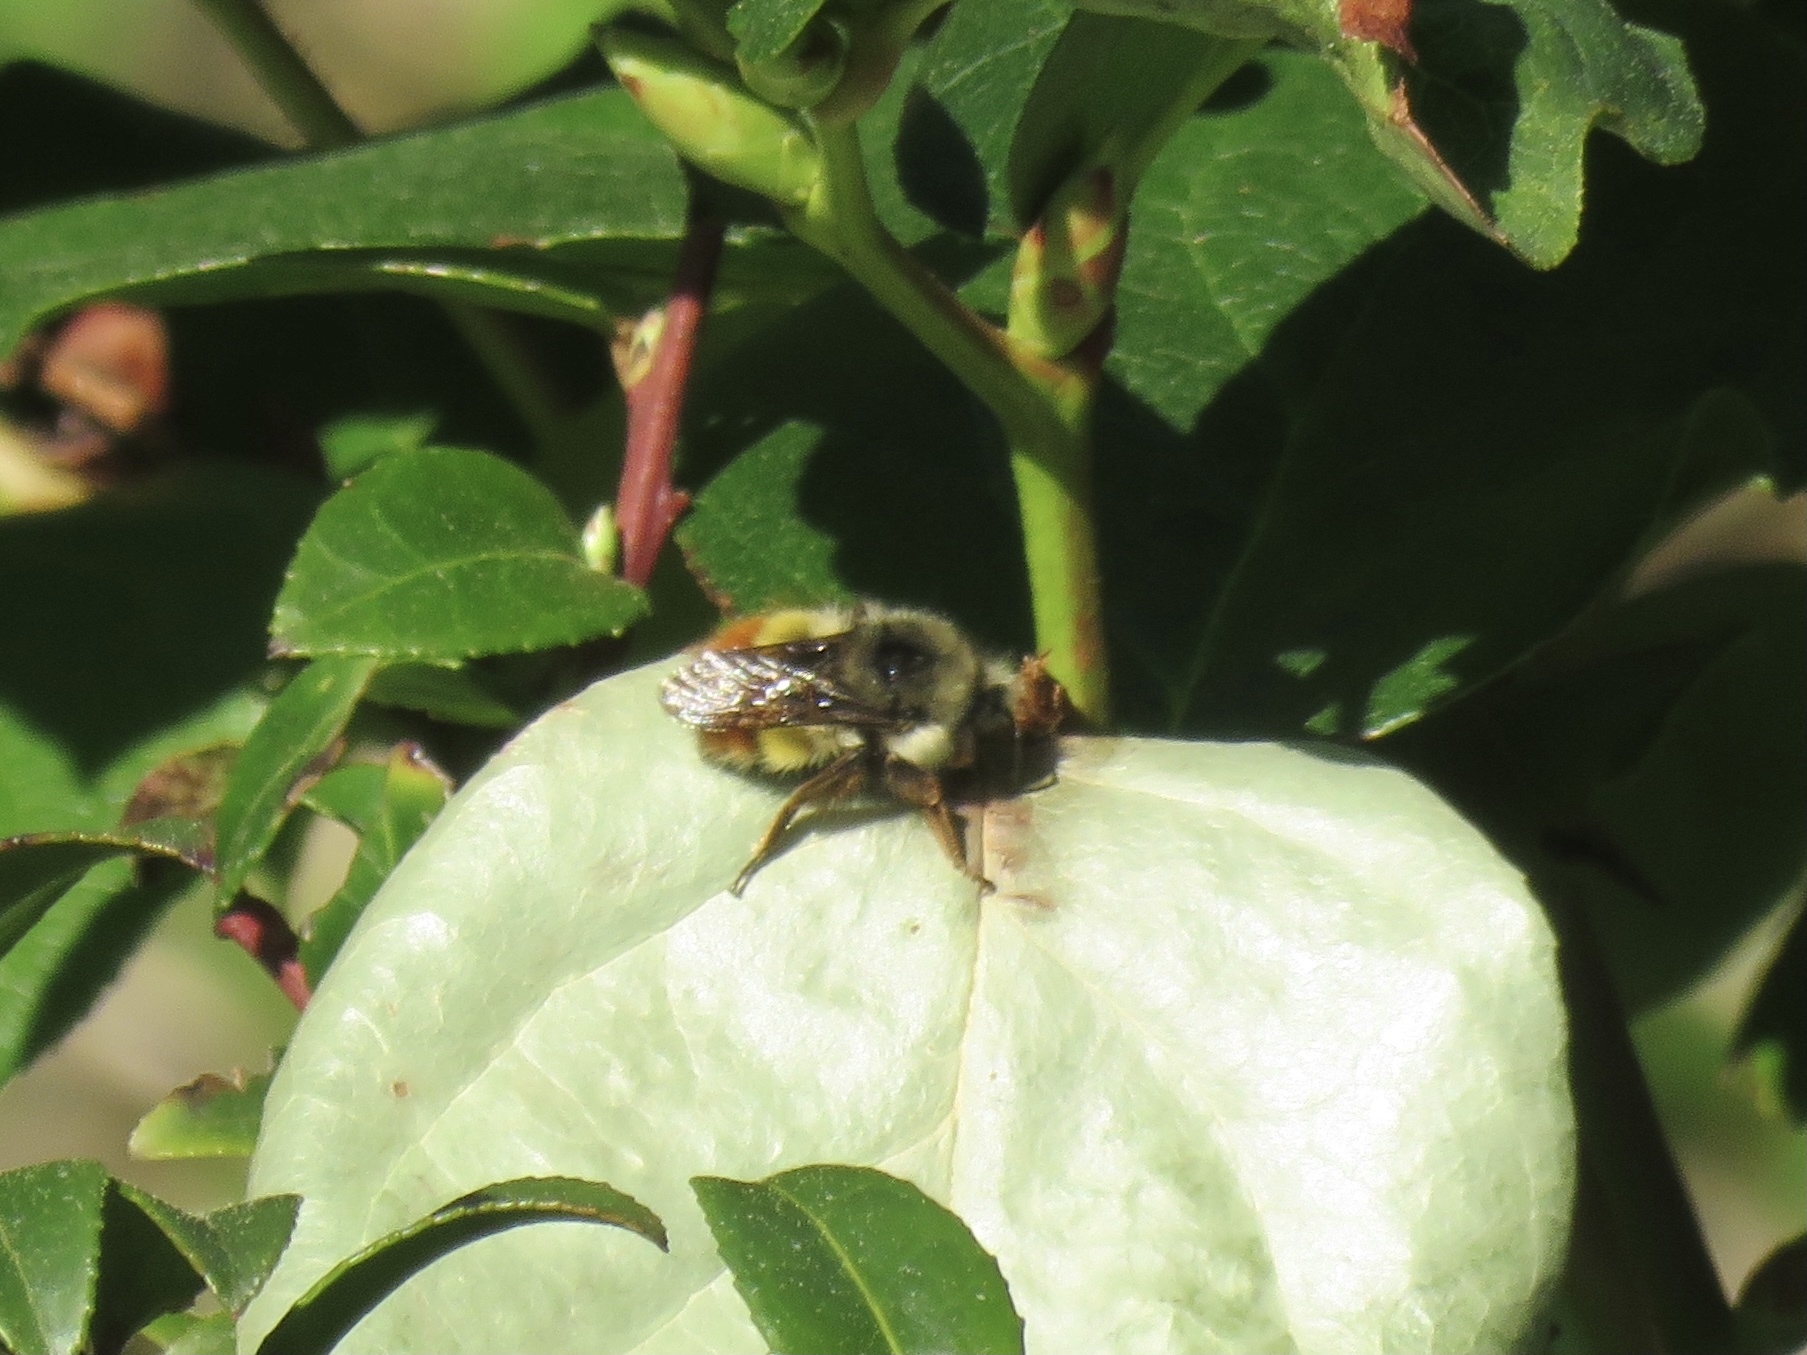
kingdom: Animalia
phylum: Arthropoda
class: Insecta
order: Hymenoptera
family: Apidae
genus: Bombus
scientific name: Bombus flavifrons
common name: Yellow head bumble bee
